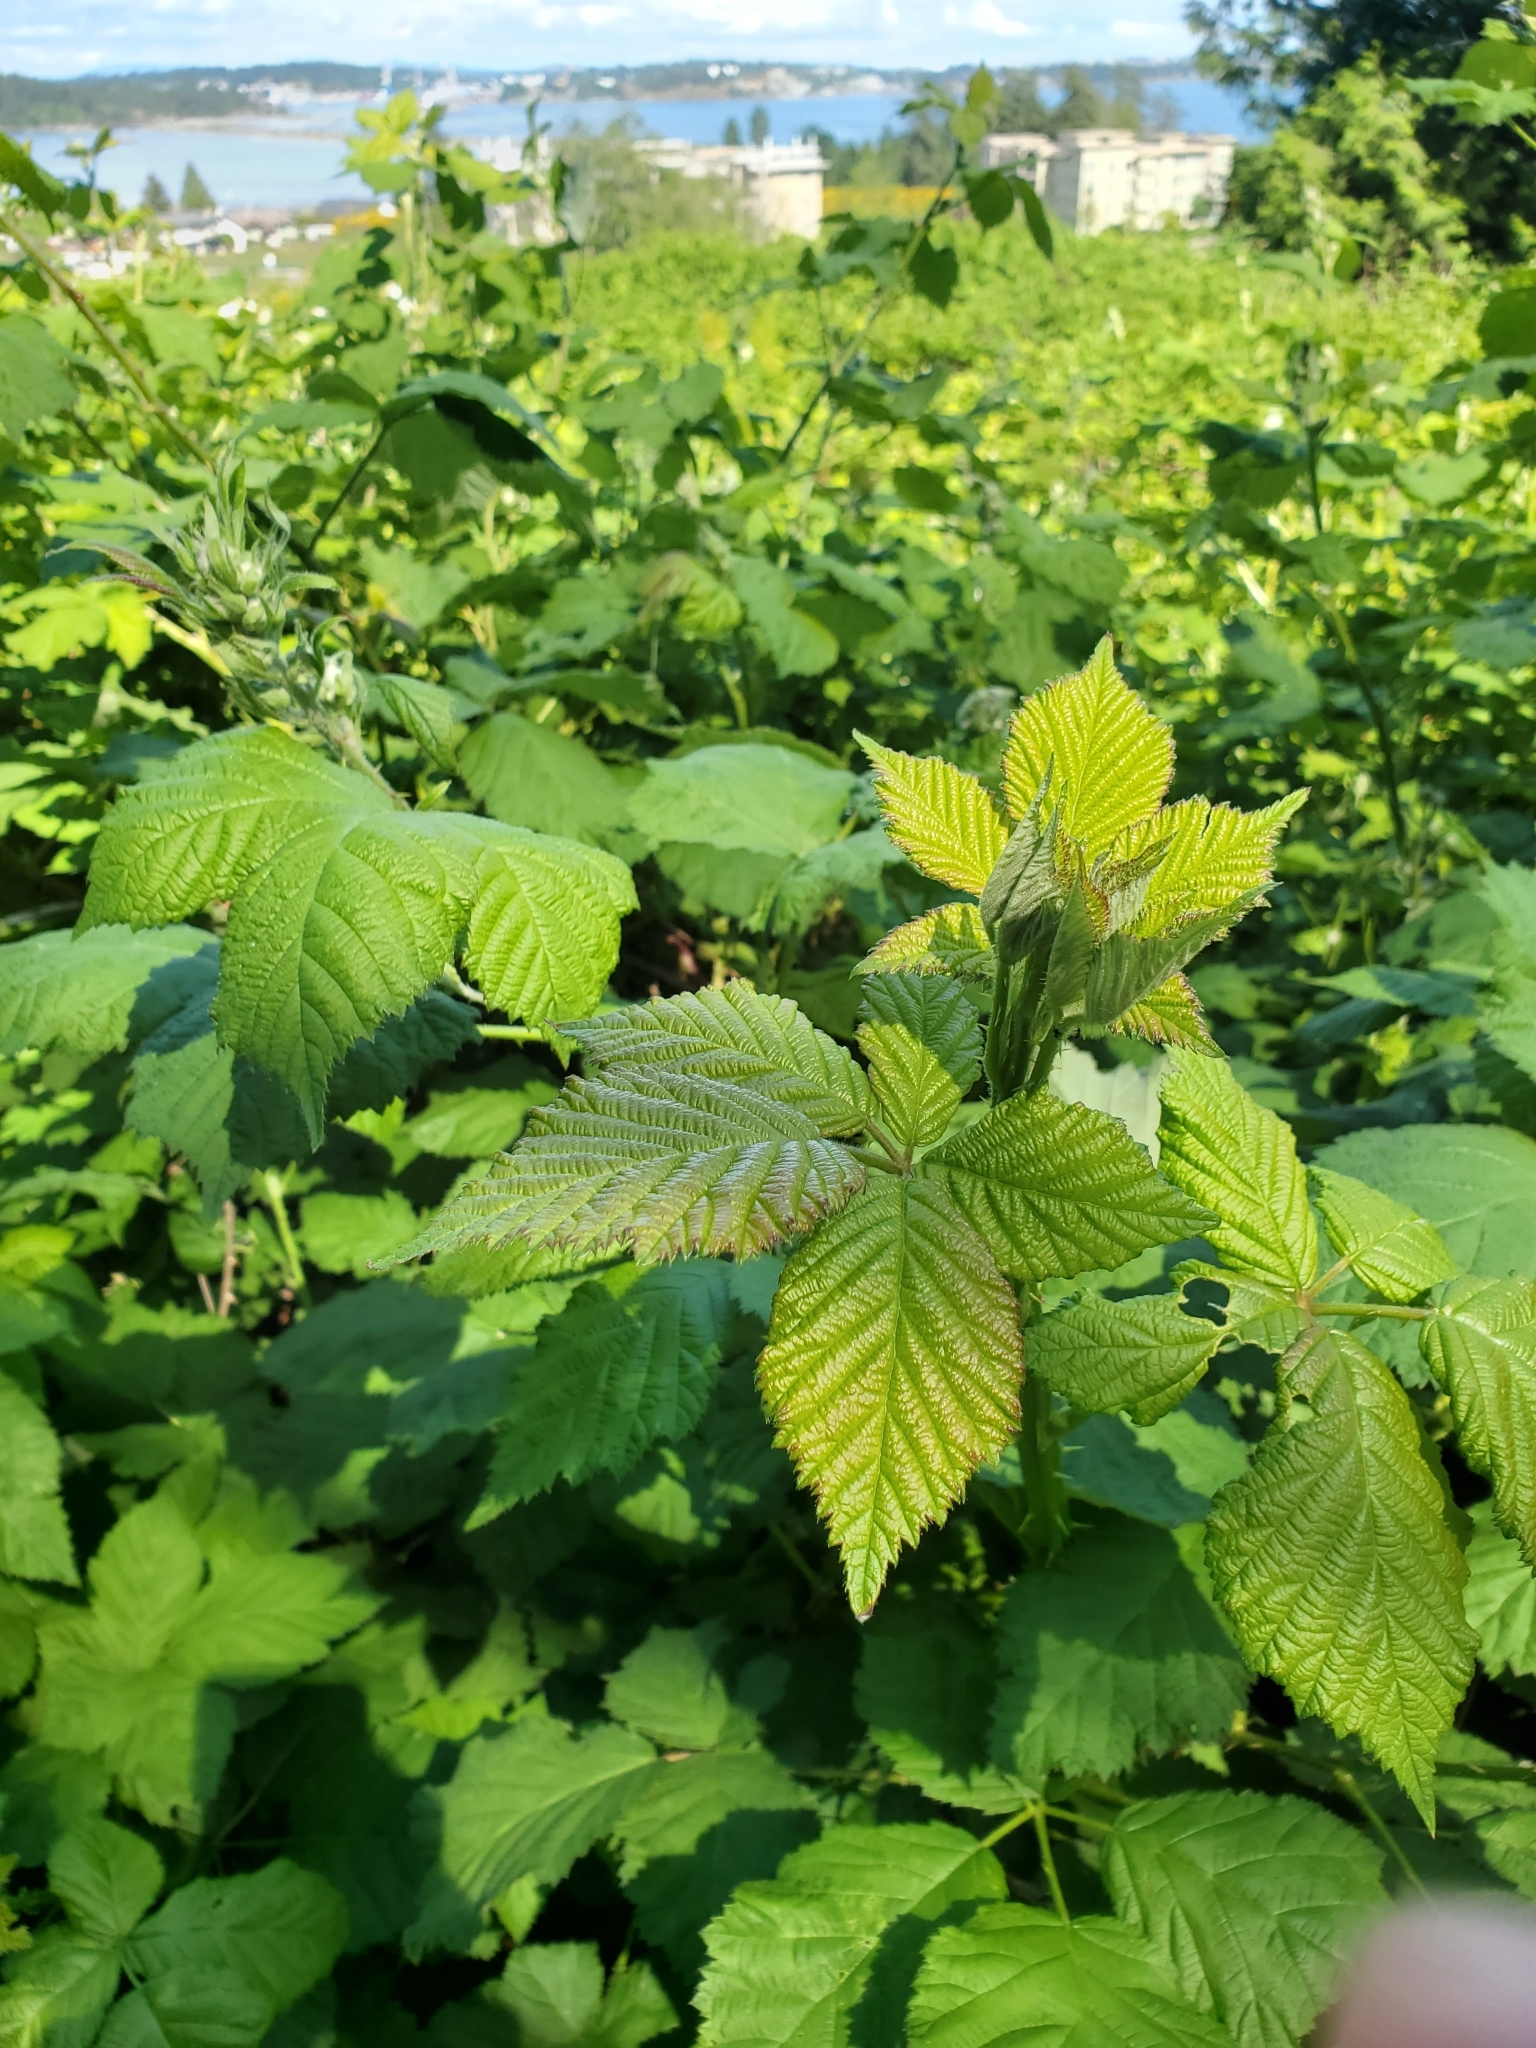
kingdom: Plantae
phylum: Tracheophyta
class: Magnoliopsida
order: Rosales
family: Rosaceae
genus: Rubus
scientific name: Rubus bifrons
